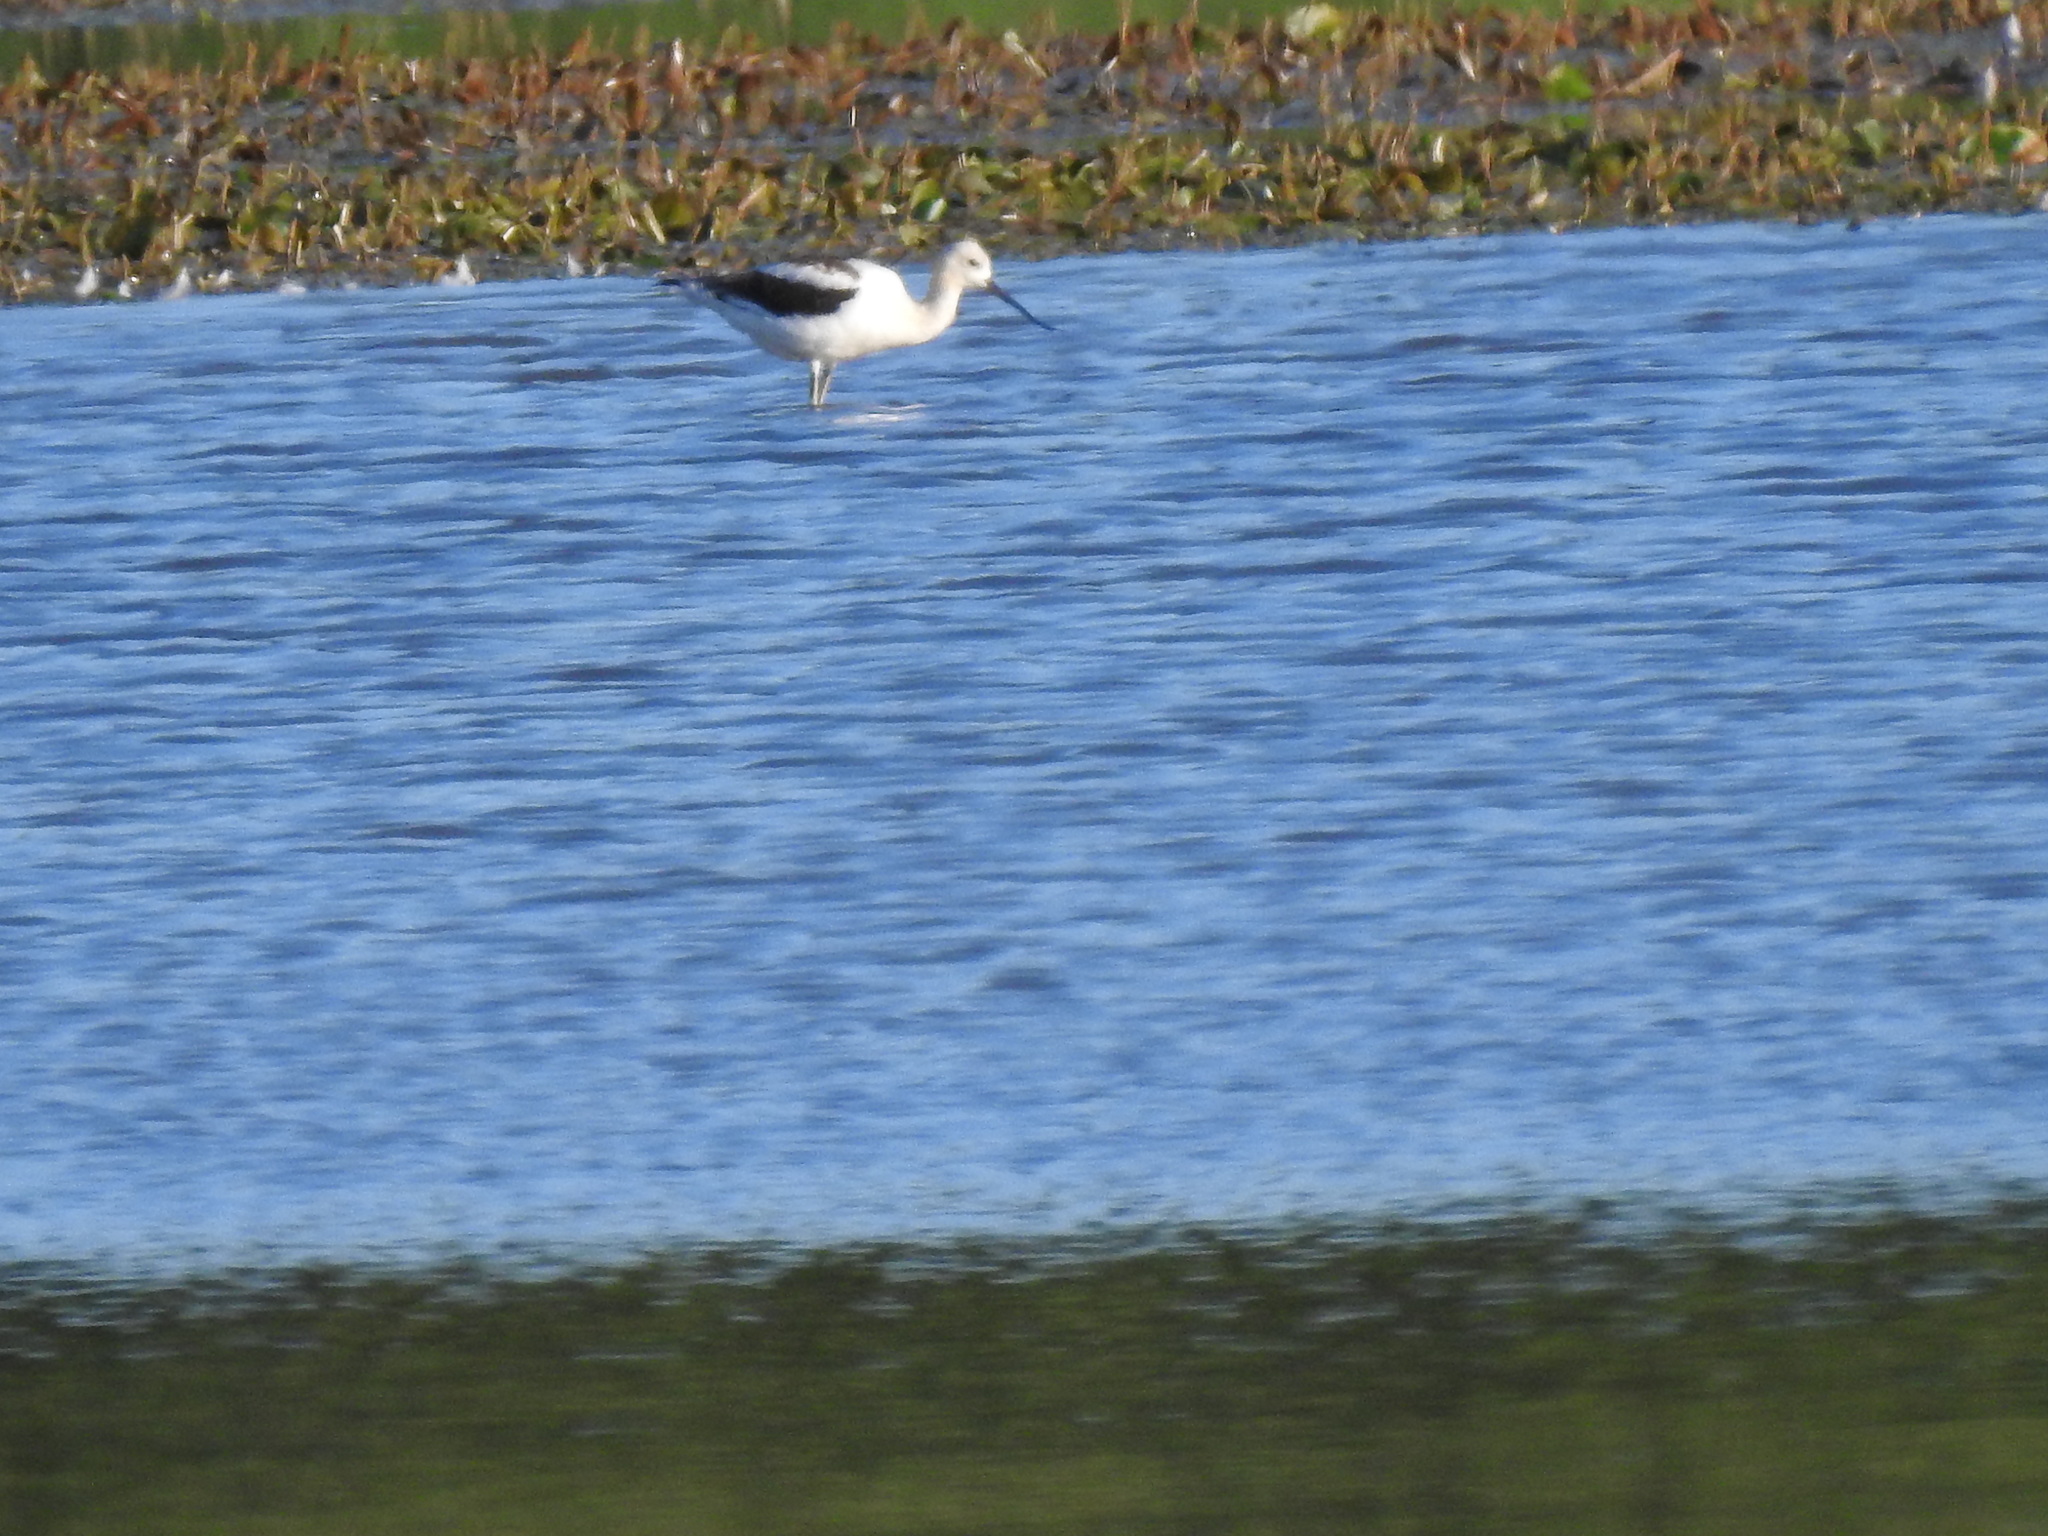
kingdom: Animalia
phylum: Chordata
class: Aves
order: Charadriiformes
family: Recurvirostridae
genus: Recurvirostra
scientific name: Recurvirostra americana
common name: American avocet
